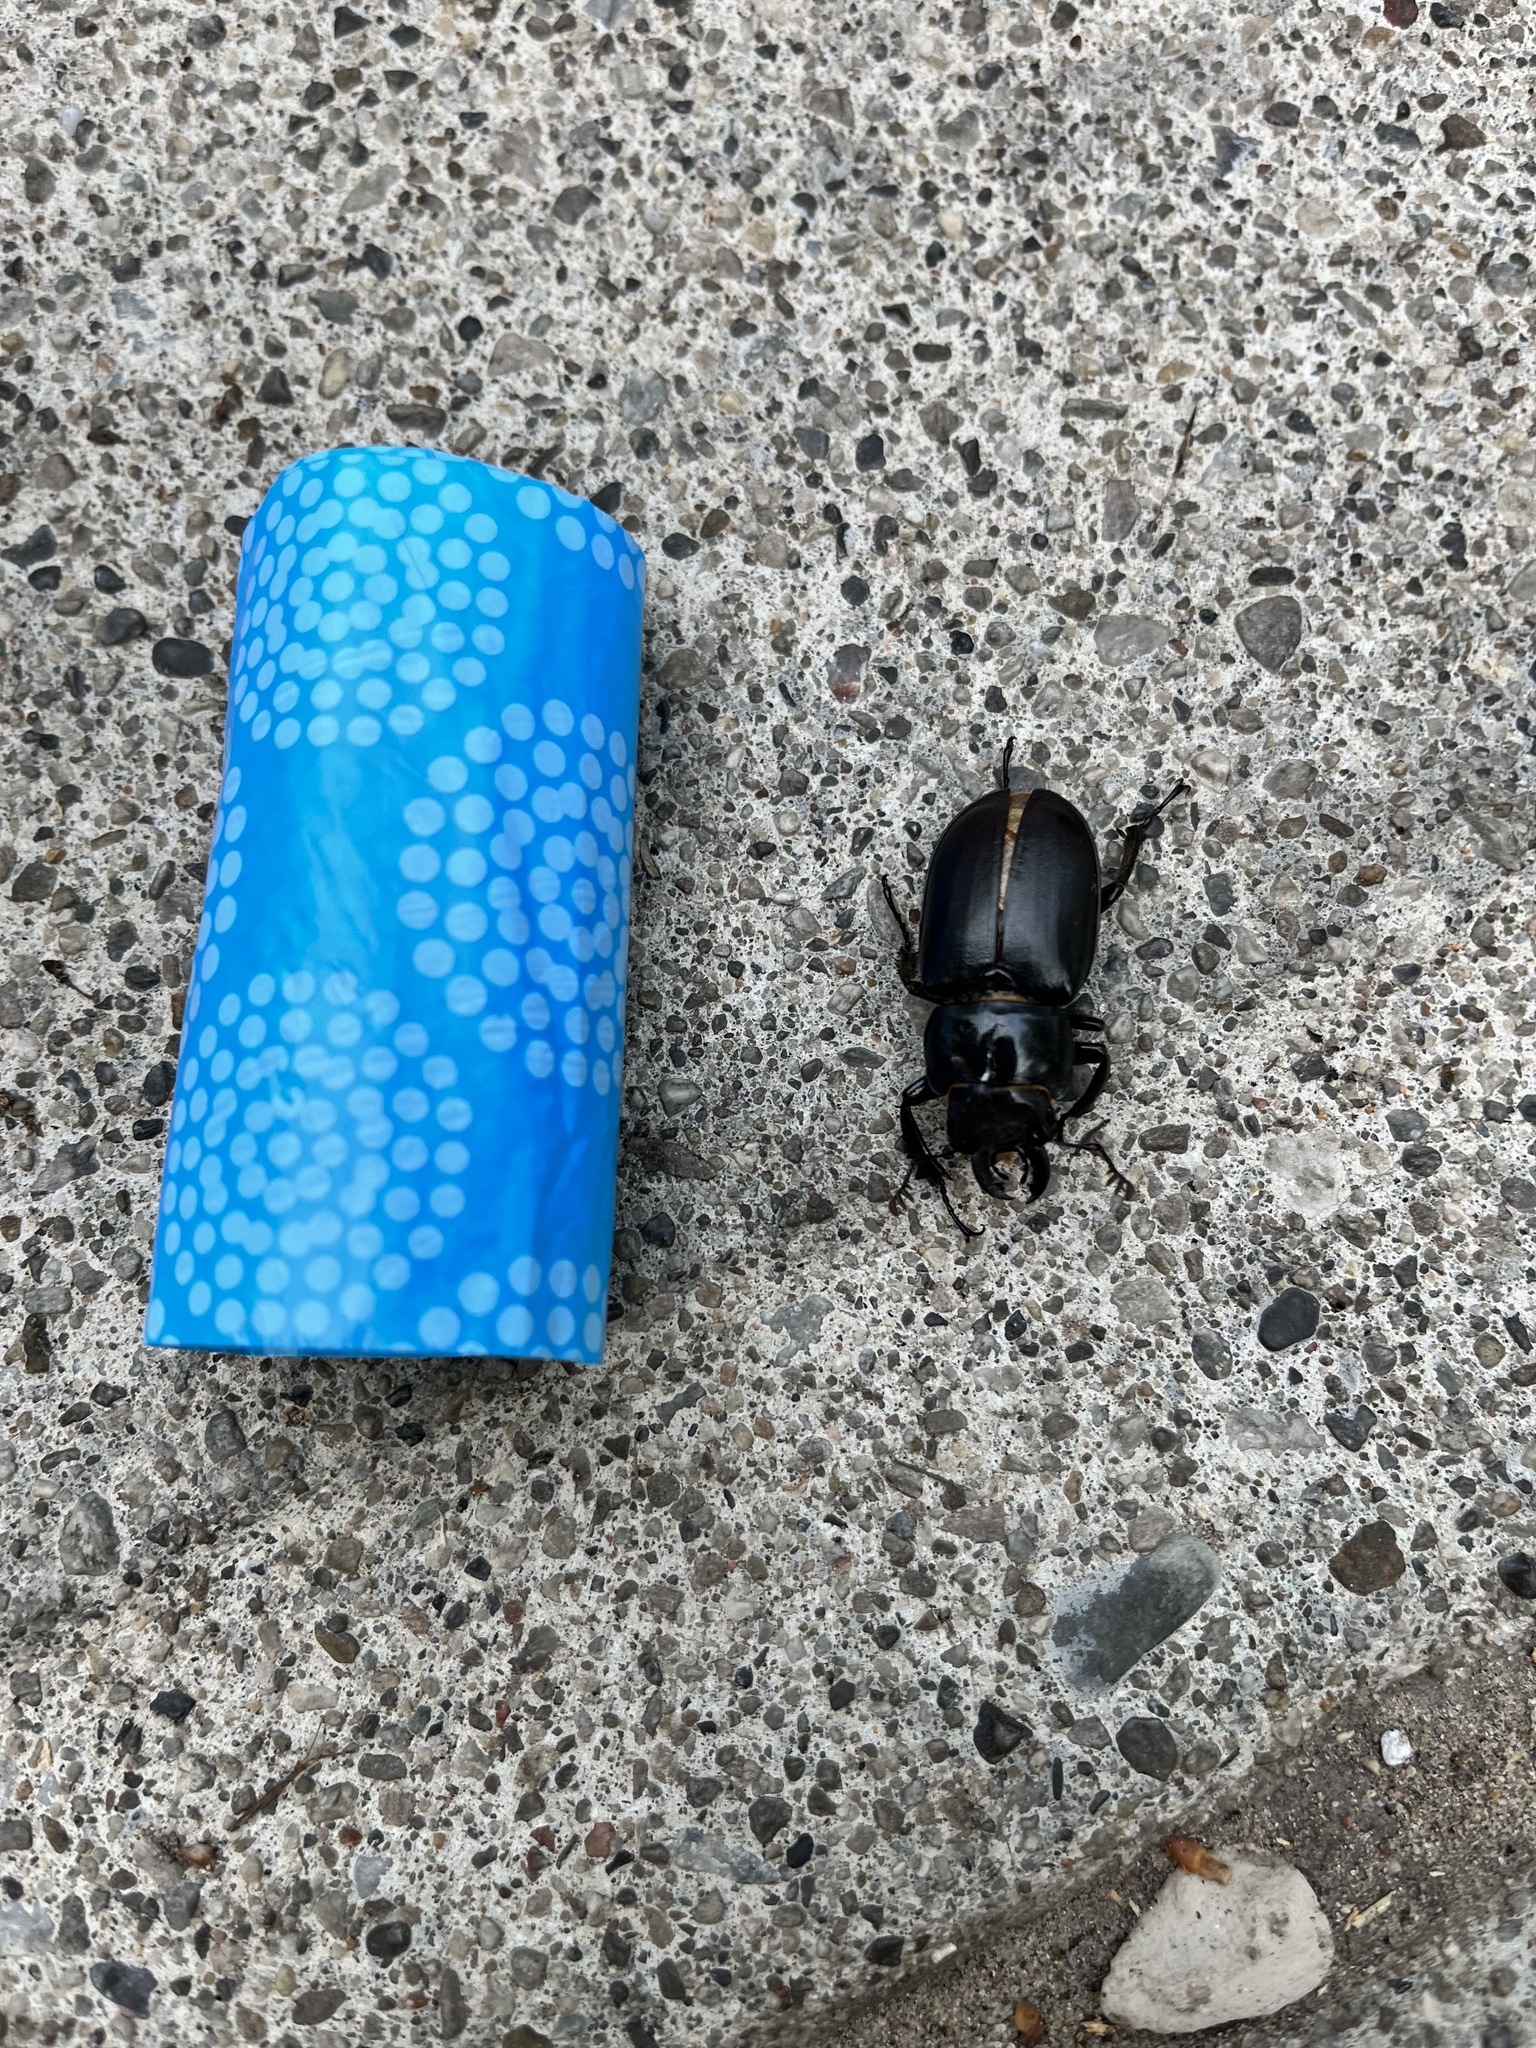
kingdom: Animalia
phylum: Arthropoda
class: Insecta
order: Coleoptera
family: Lucanidae
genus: Lucanus
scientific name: Lucanus placidus
